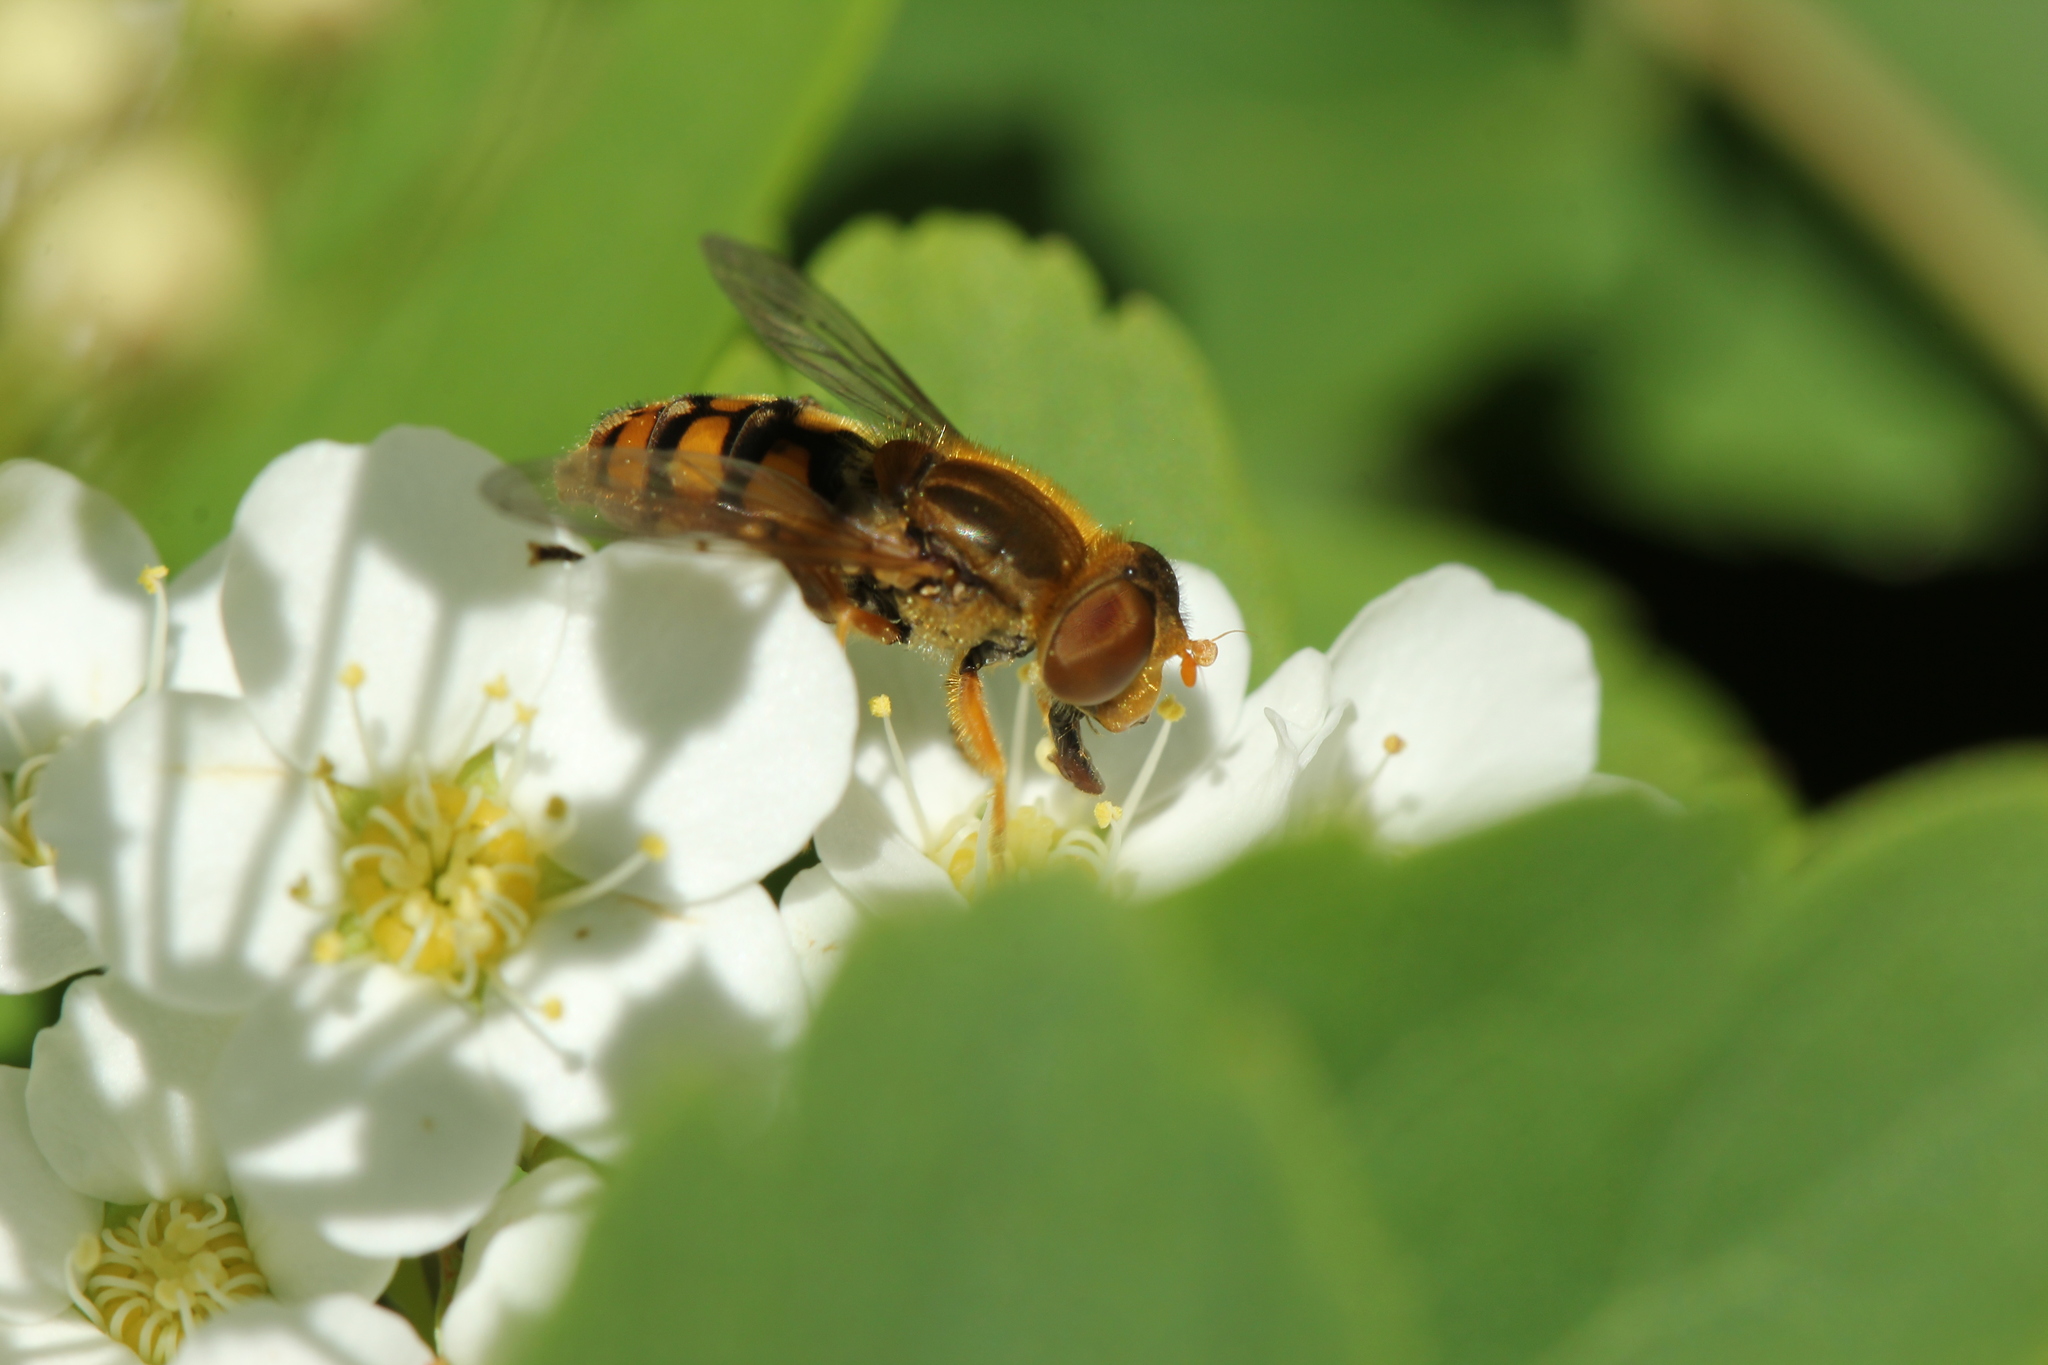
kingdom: Animalia
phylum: Arthropoda
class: Insecta
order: Diptera
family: Syrphidae
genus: Parhelophilus
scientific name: Parhelophilus obsoletus
